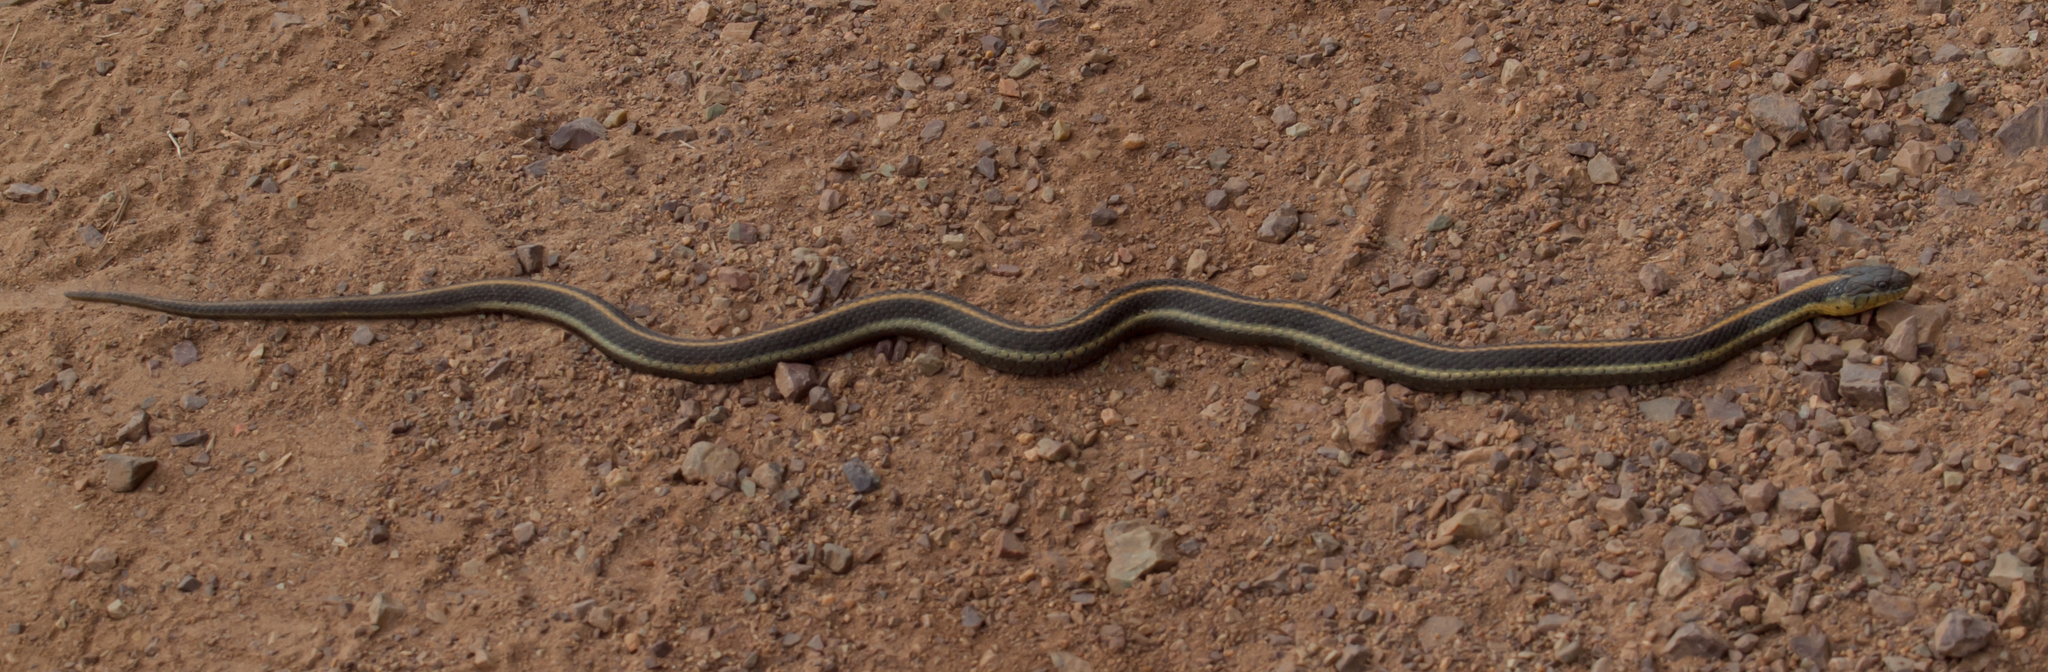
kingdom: Animalia
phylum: Chordata
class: Squamata
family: Colubridae
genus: Thamnophis
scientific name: Thamnophis atratus
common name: Pacific coast aquatic garter snake
